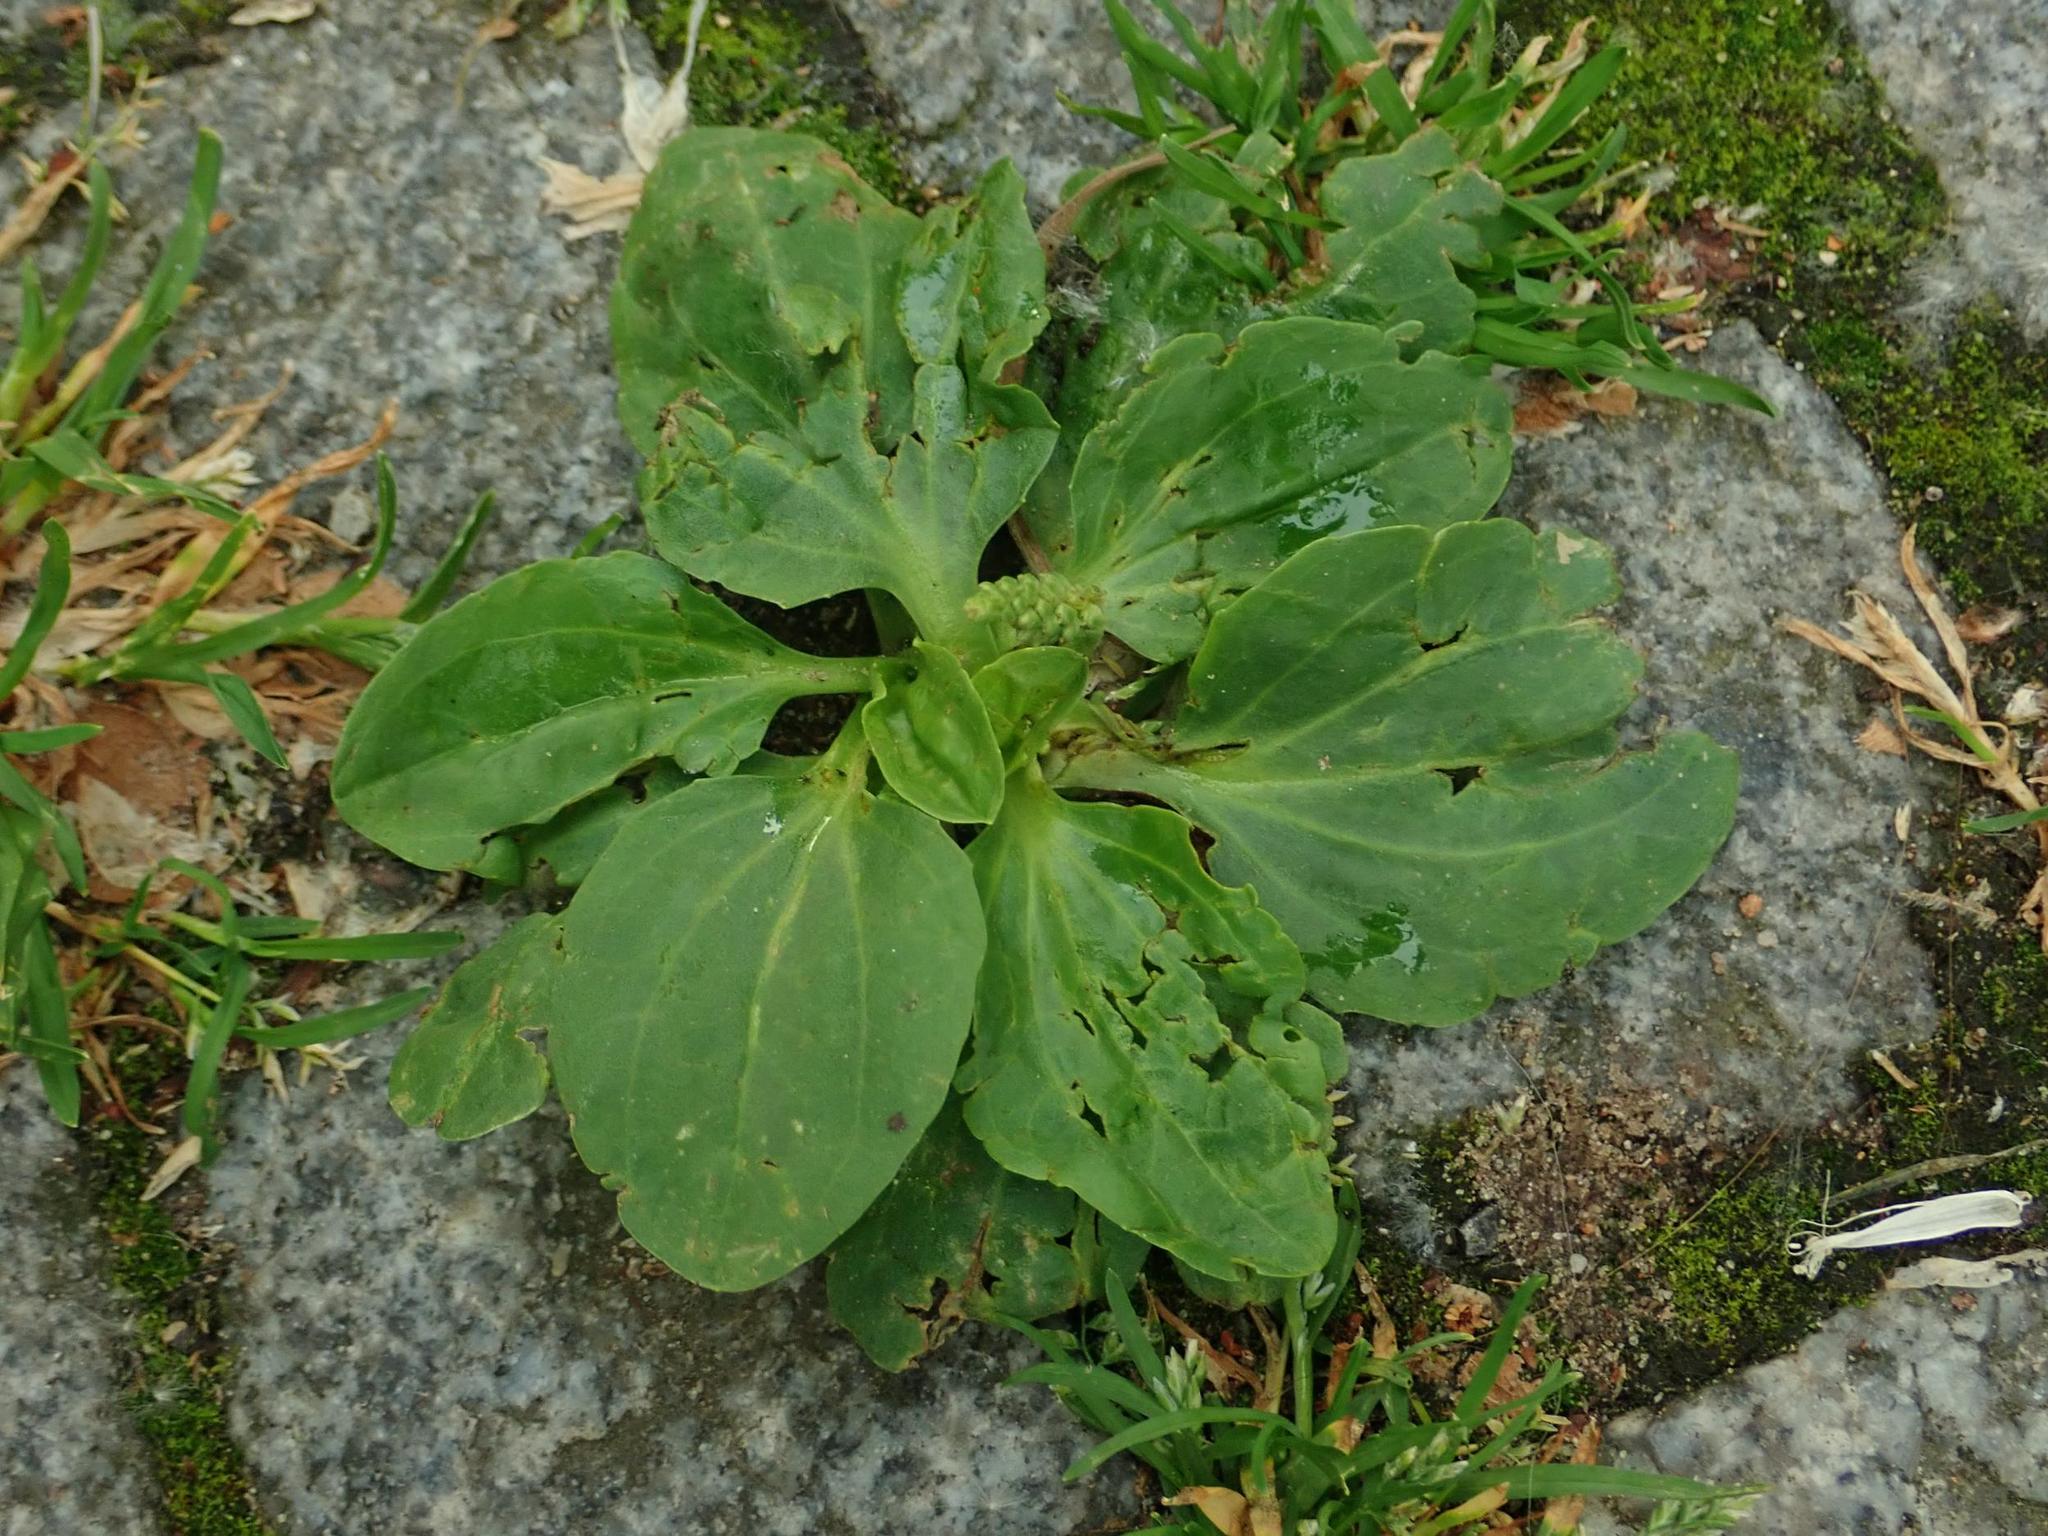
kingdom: Plantae
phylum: Tracheophyta
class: Magnoliopsida
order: Lamiales
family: Plantaginaceae
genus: Plantago
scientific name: Plantago major
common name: Common plantain
